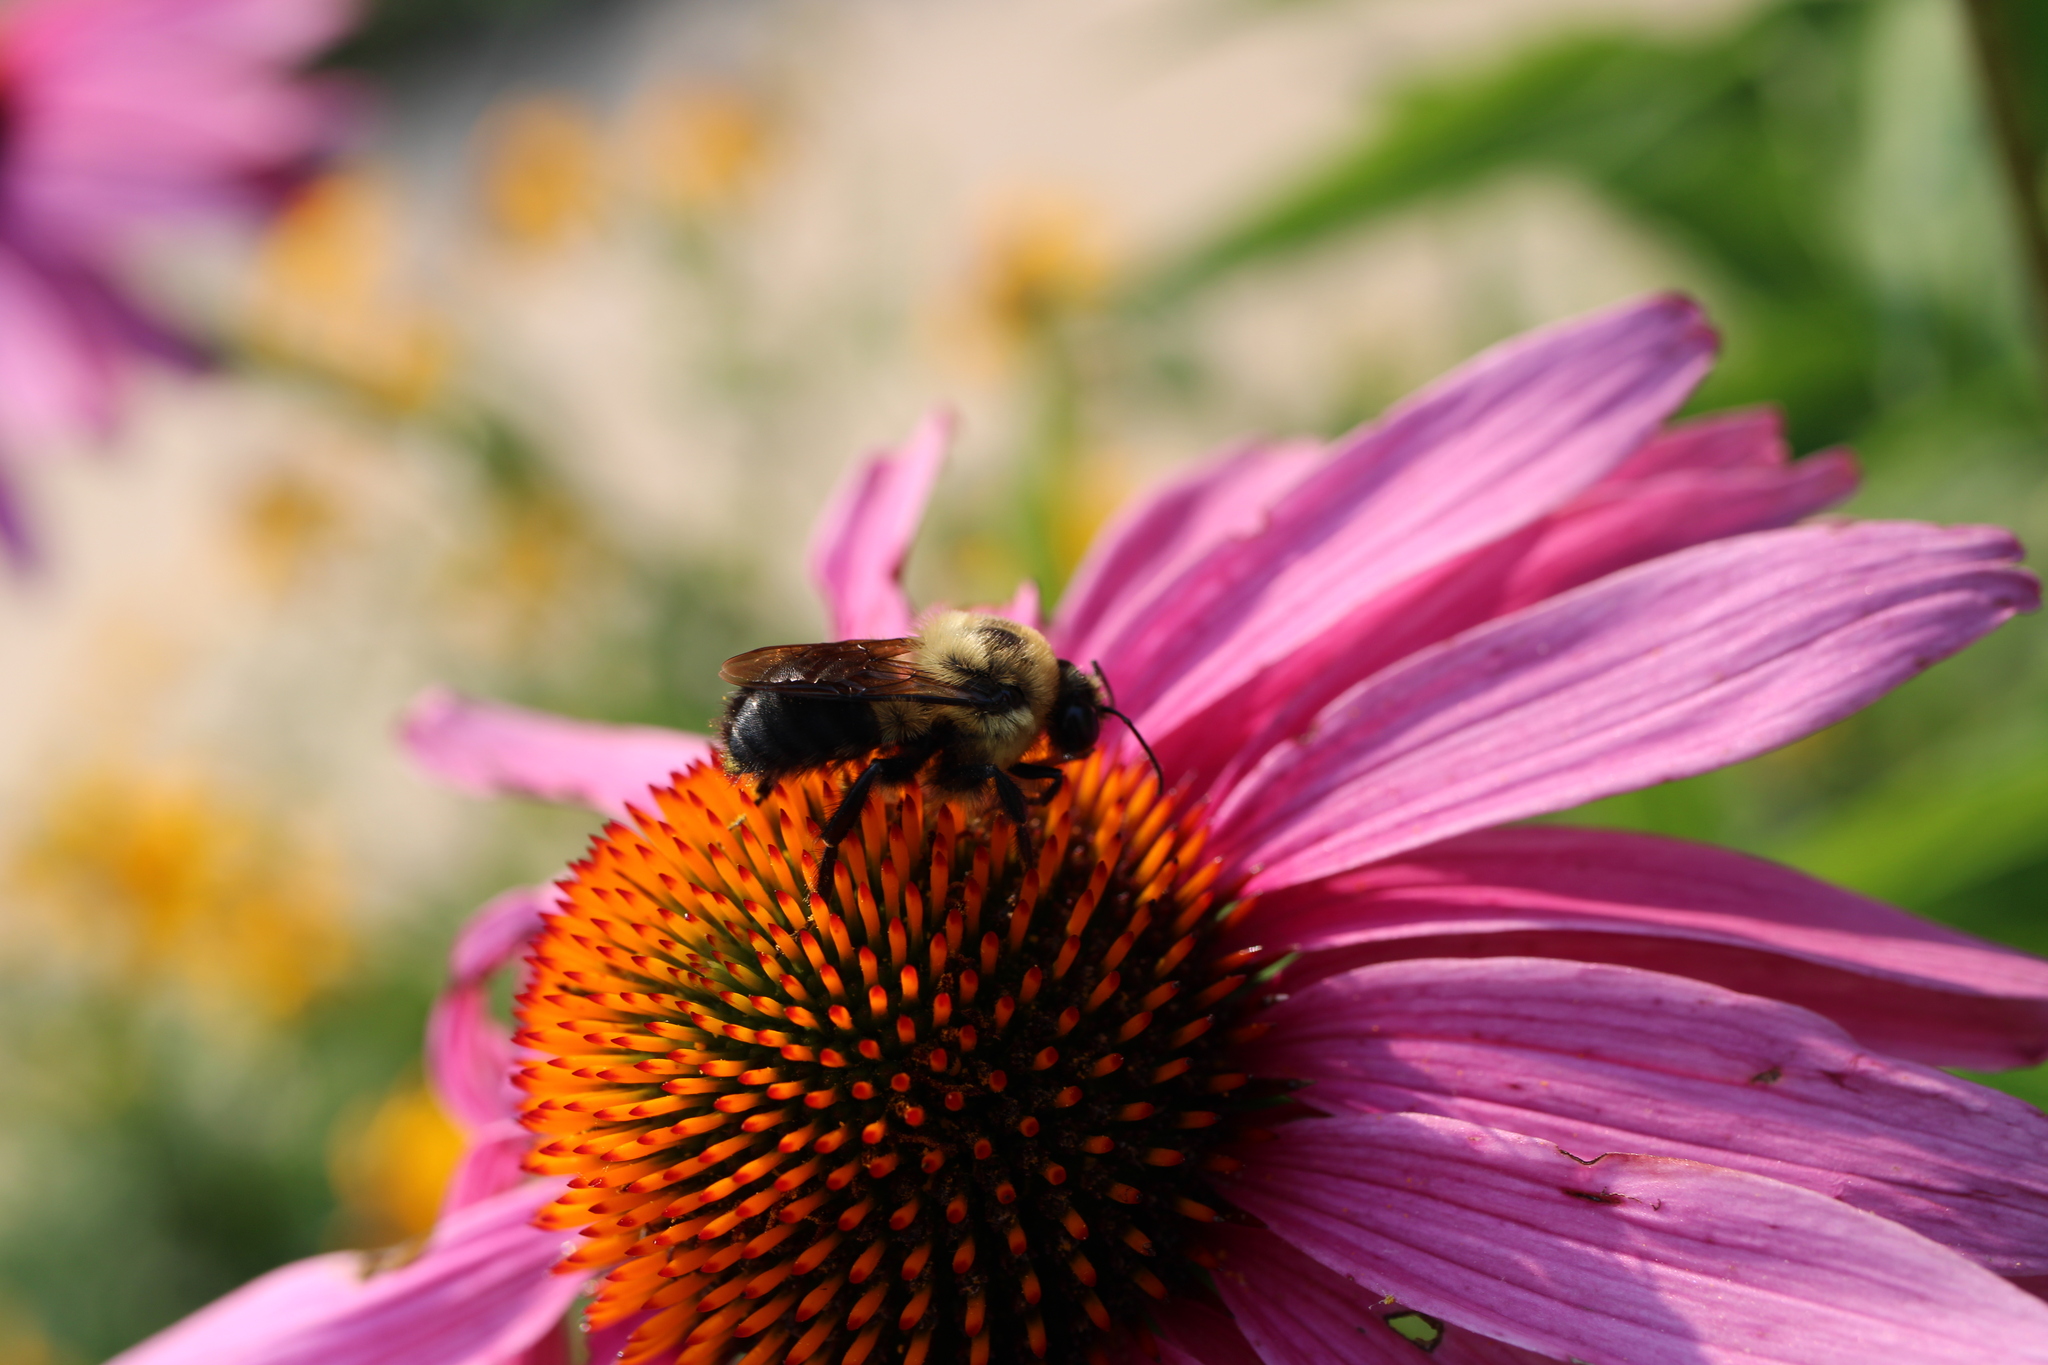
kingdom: Animalia
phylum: Arthropoda
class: Insecta
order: Hymenoptera
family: Apidae
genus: Bombus
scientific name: Bombus griseocollis
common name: Brown-belted bumble bee
